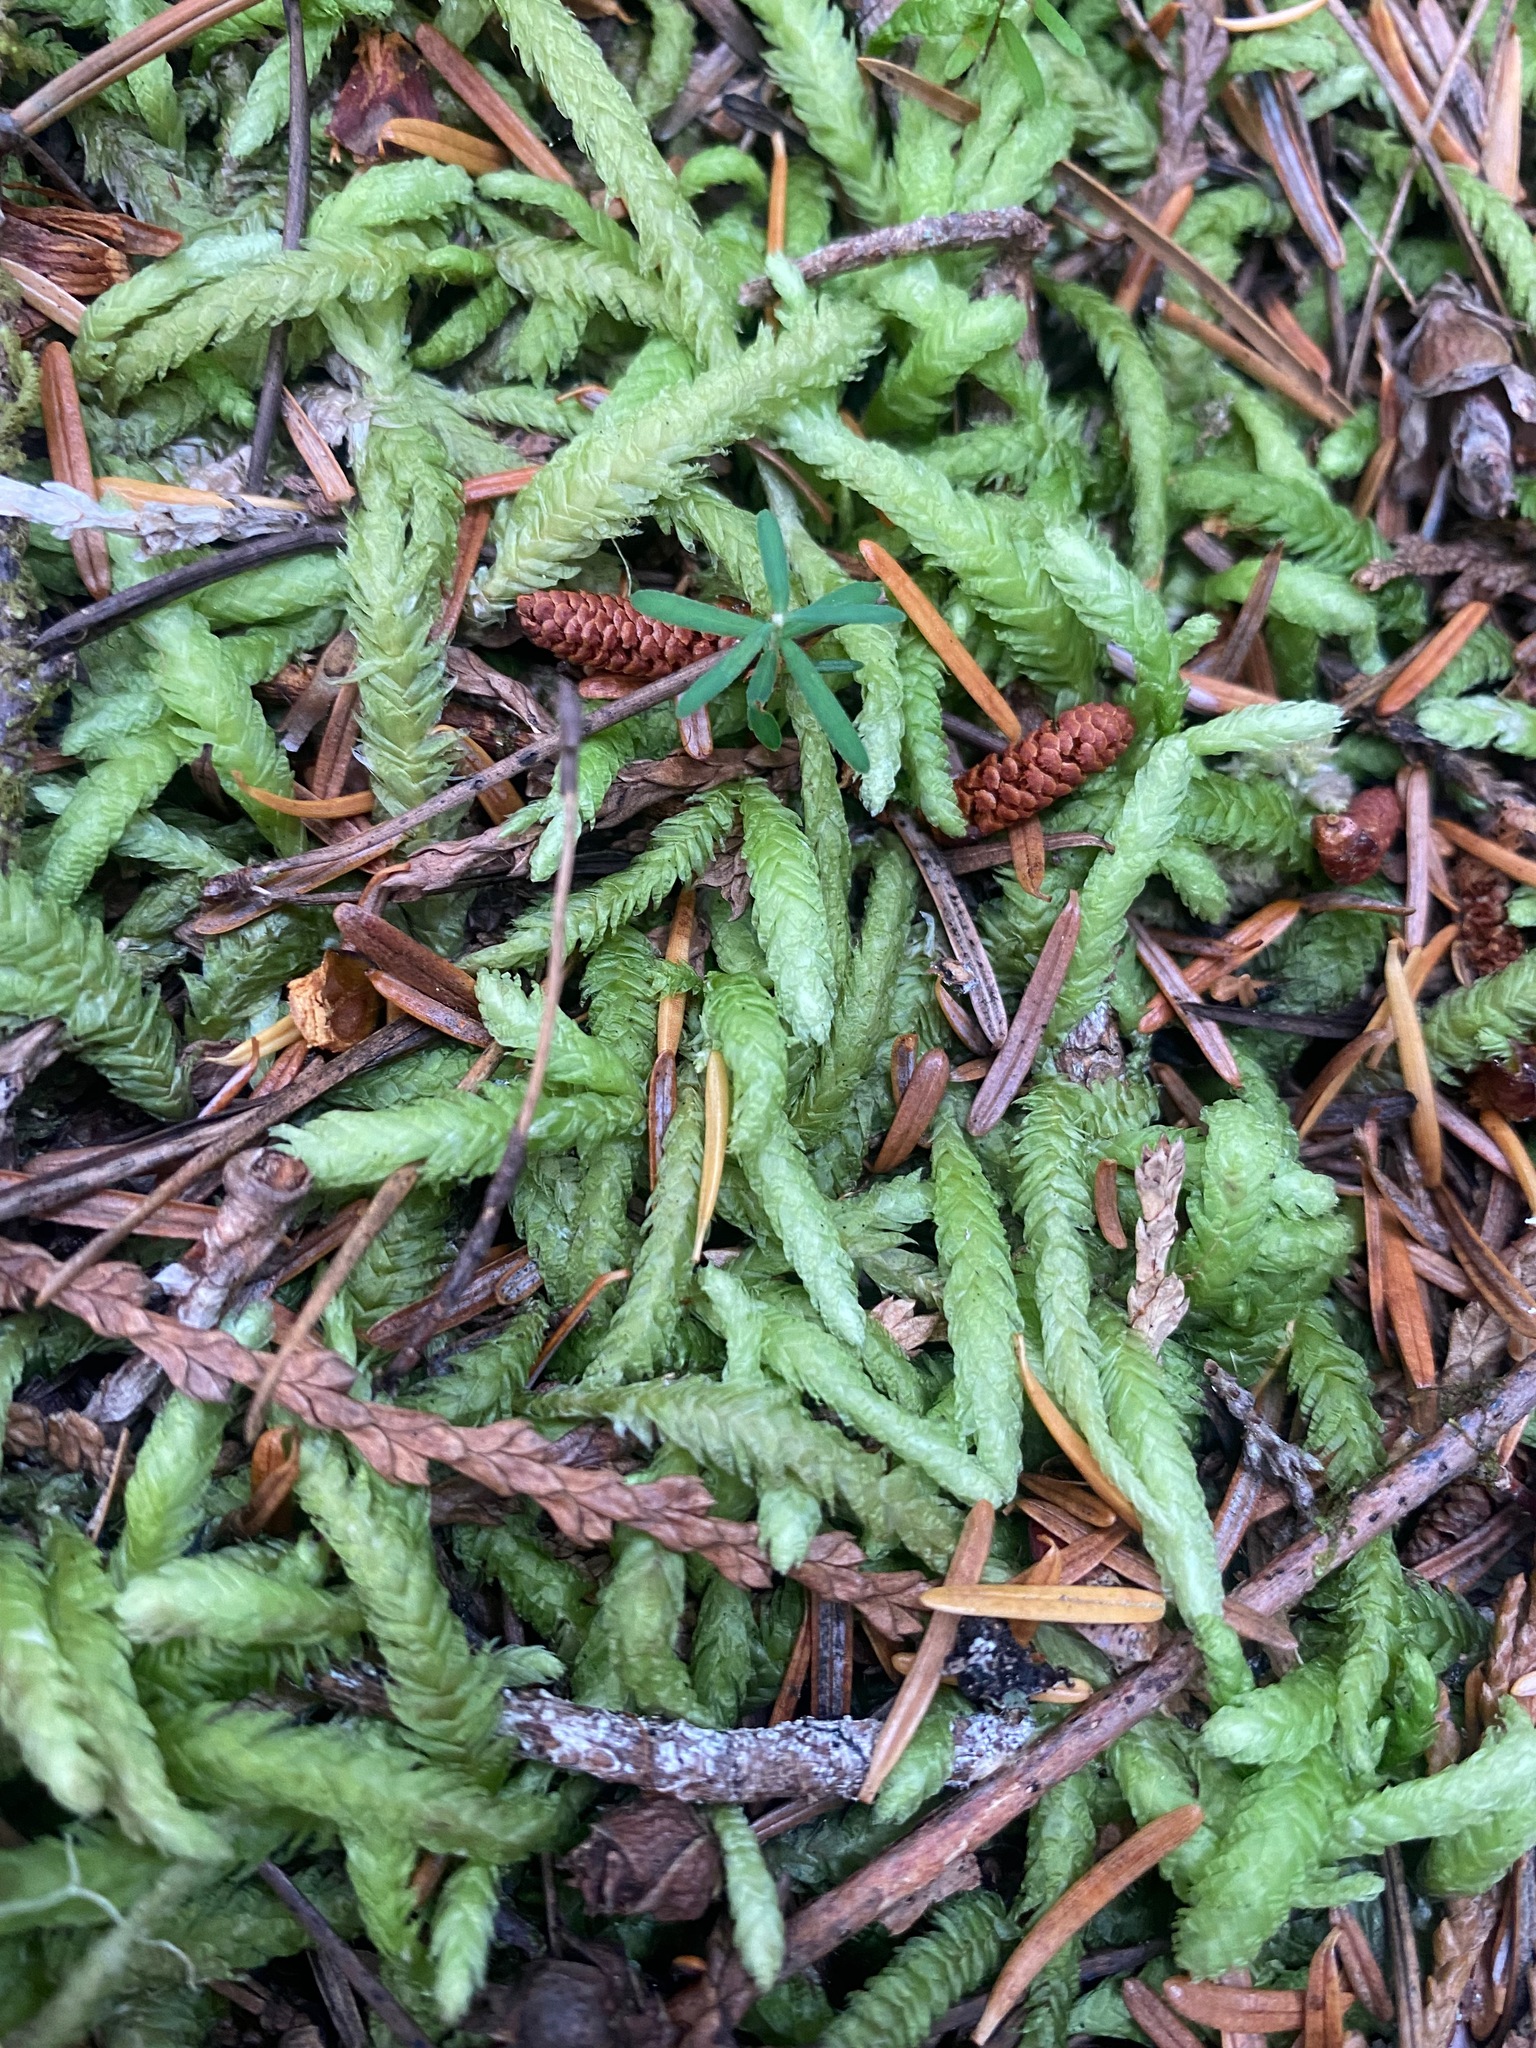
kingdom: Plantae
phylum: Bryophyta
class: Bryopsida
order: Hypnales
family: Plagiotheciaceae
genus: Plagiothecium
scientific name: Plagiothecium undulatum
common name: Waved silk-moss
